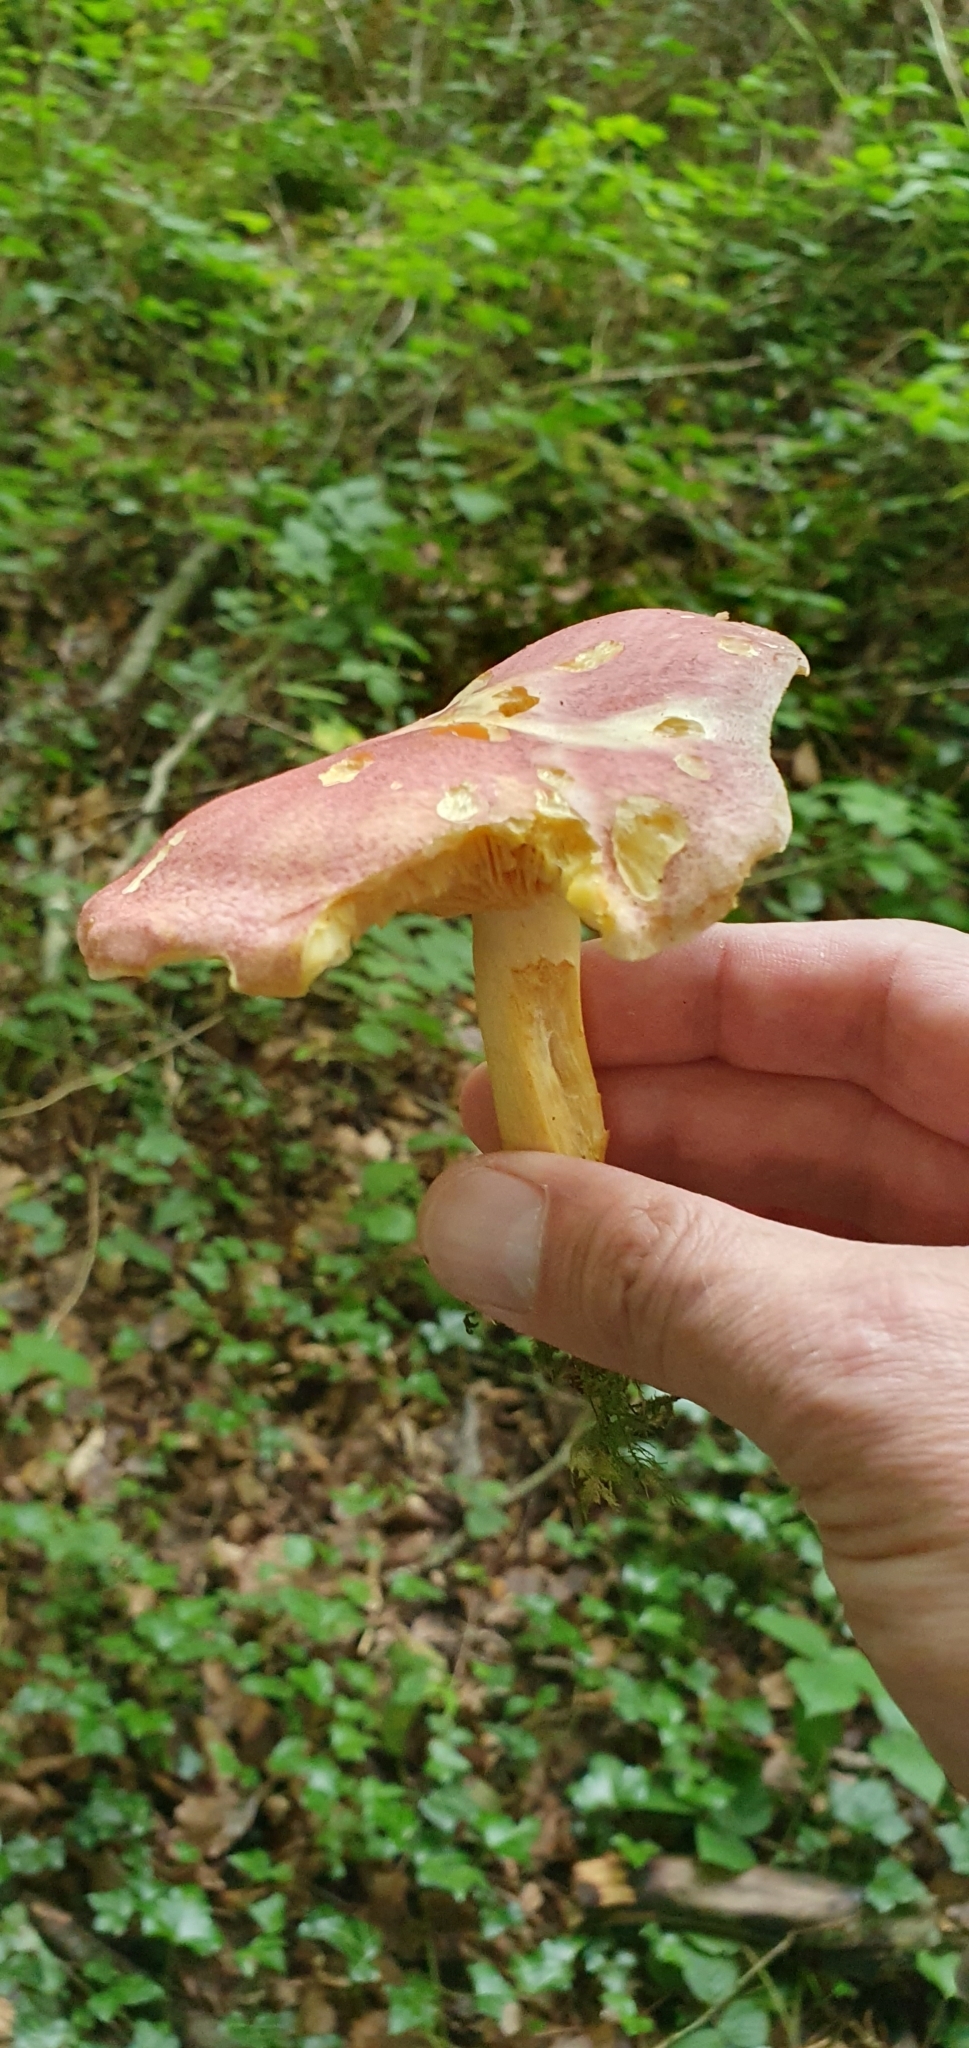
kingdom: Fungi
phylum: Basidiomycota
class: Agaricomycetes
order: Agaricales
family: Tricholomataceae
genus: Tricholomopsis
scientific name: Tricholomopsis rutilans
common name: Plums and custard
